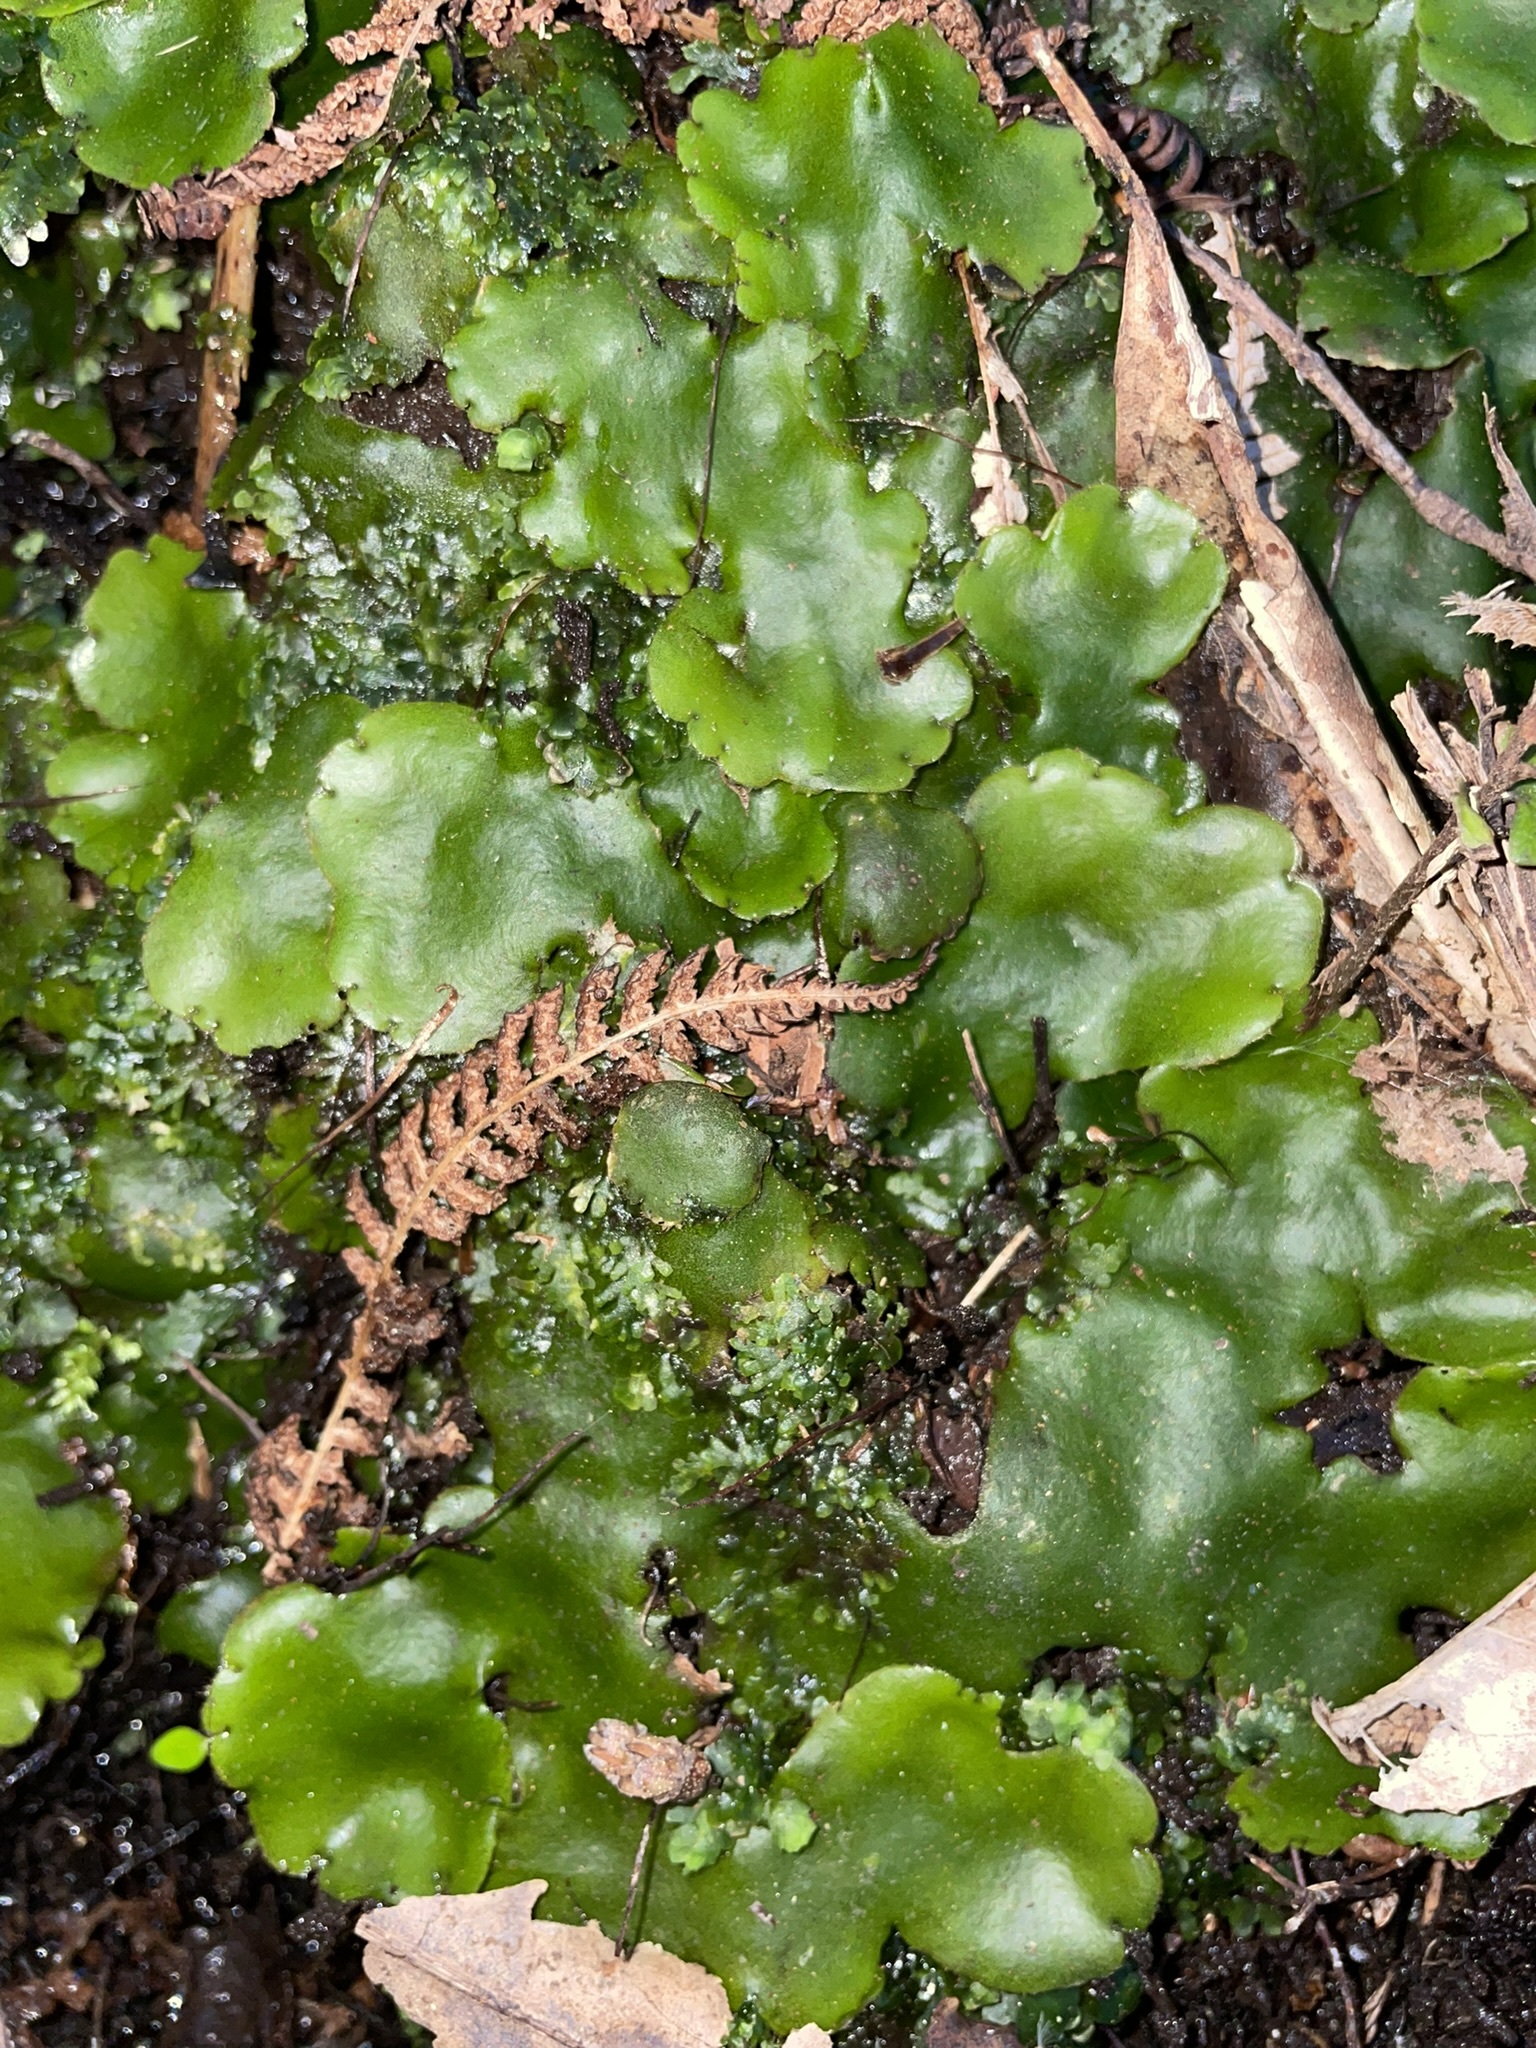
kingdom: Plantae
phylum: Marchantiophyta
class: Marchantiopsida
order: Marchantiales
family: Monocleaceae
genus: Monoclea
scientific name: Monoclea forsteri
